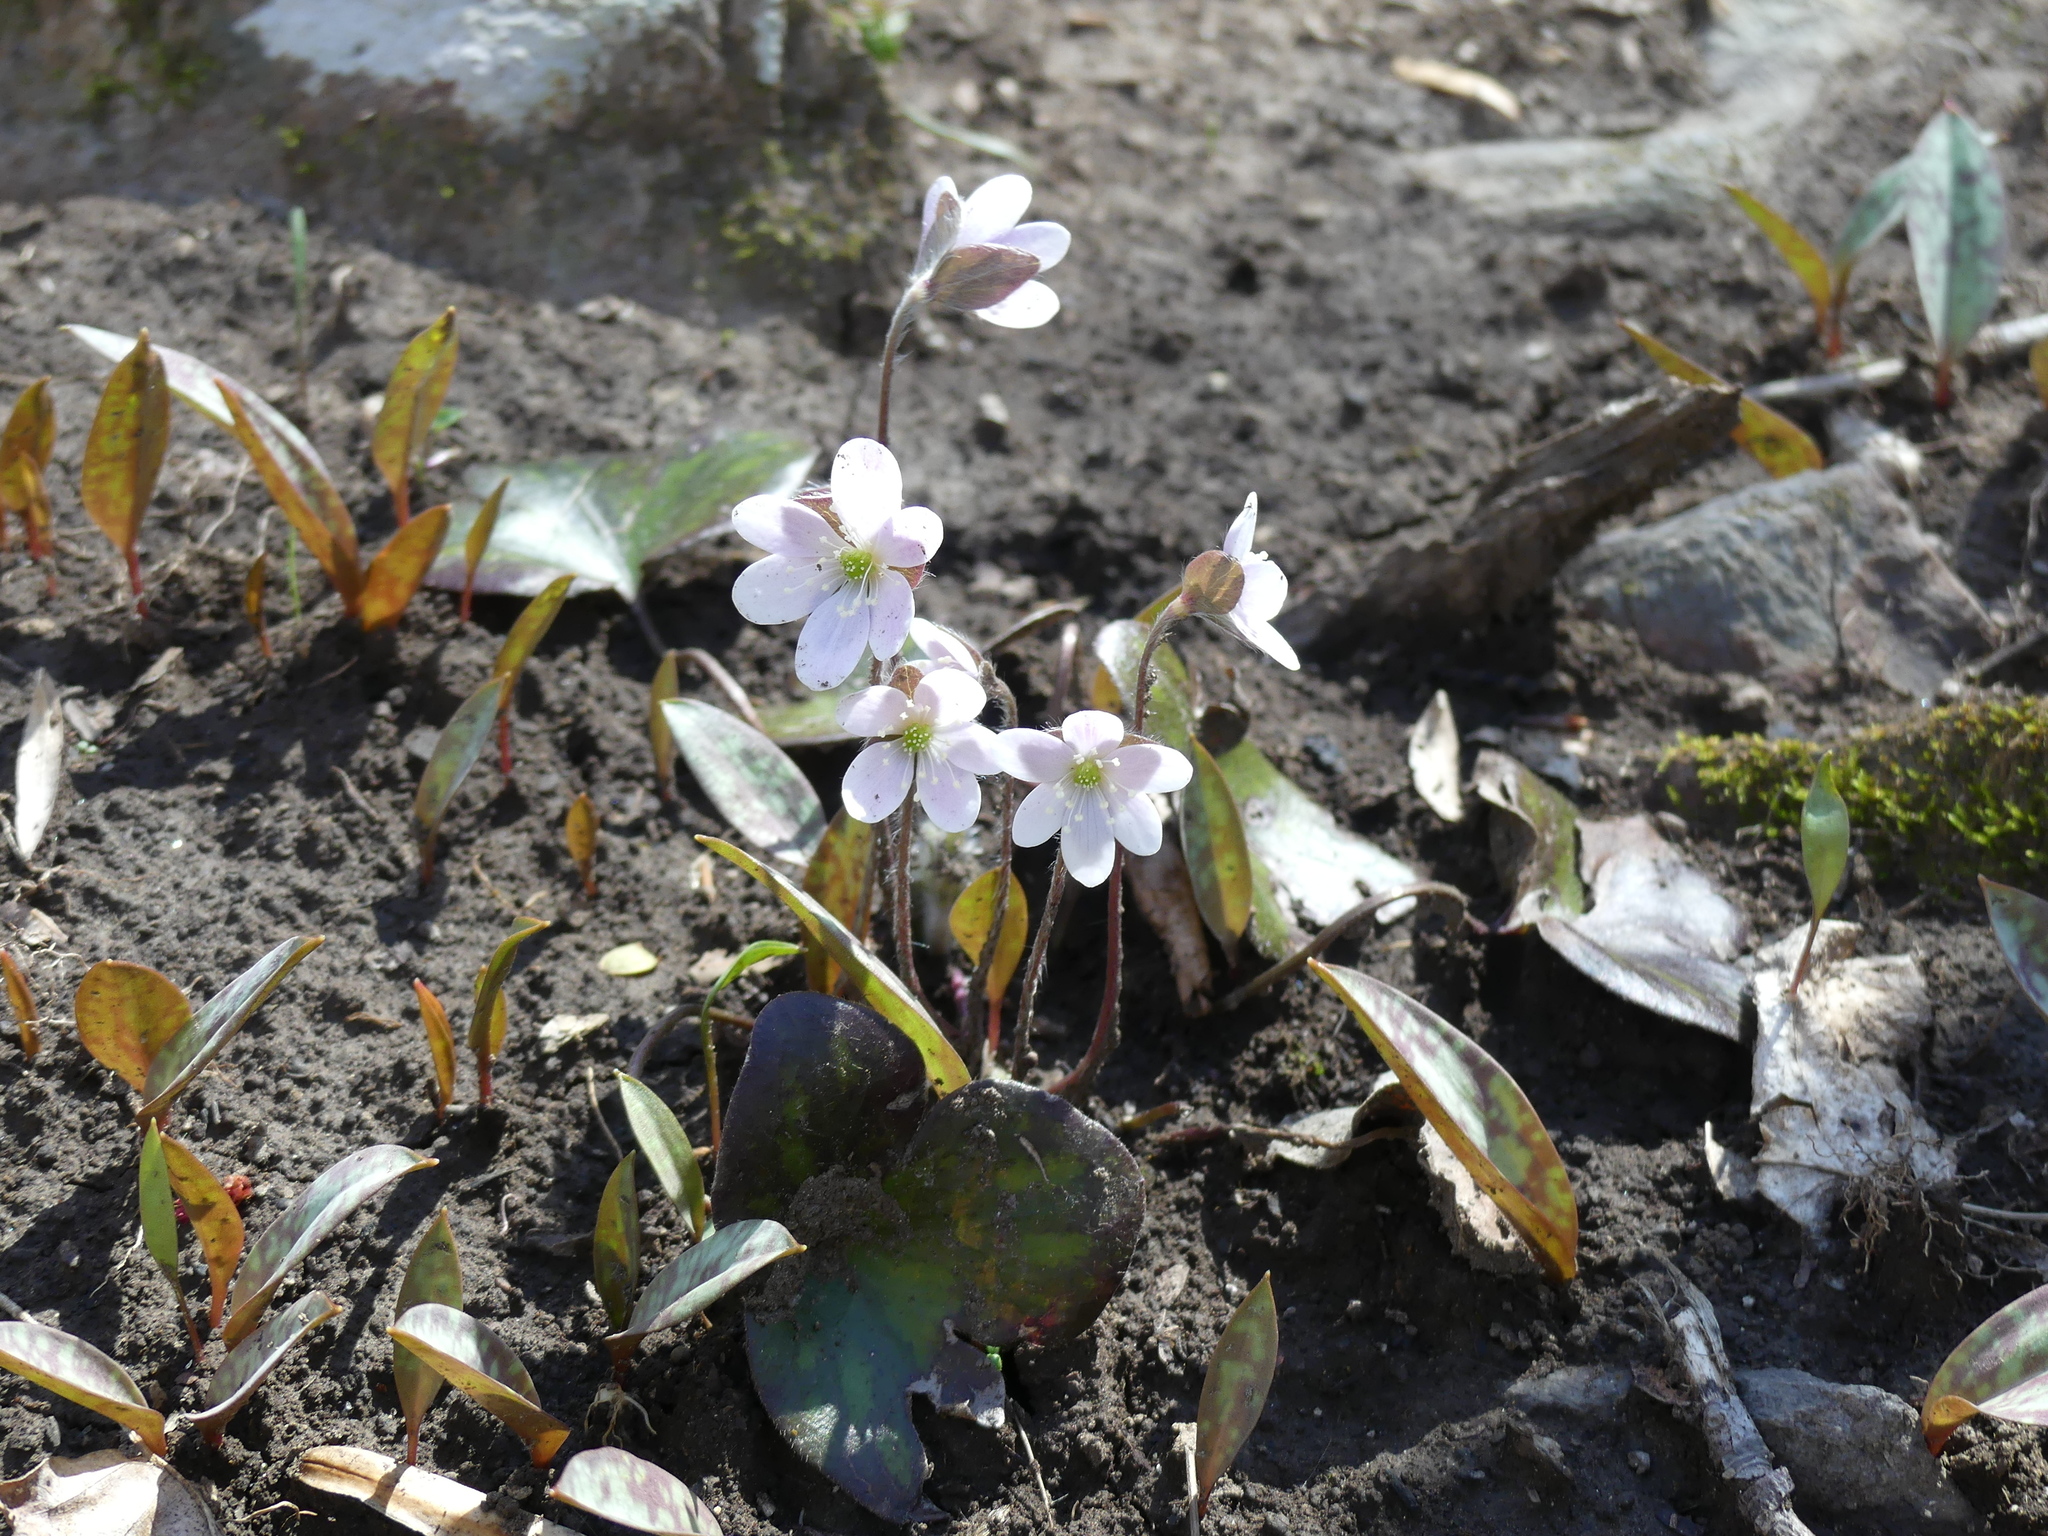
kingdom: Plantae
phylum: Tracheophyta
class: Magnoliopsida
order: Ranunculales
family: Ranunculaceae
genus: Hepatica
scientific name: Hepatica americana
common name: American hepatica
